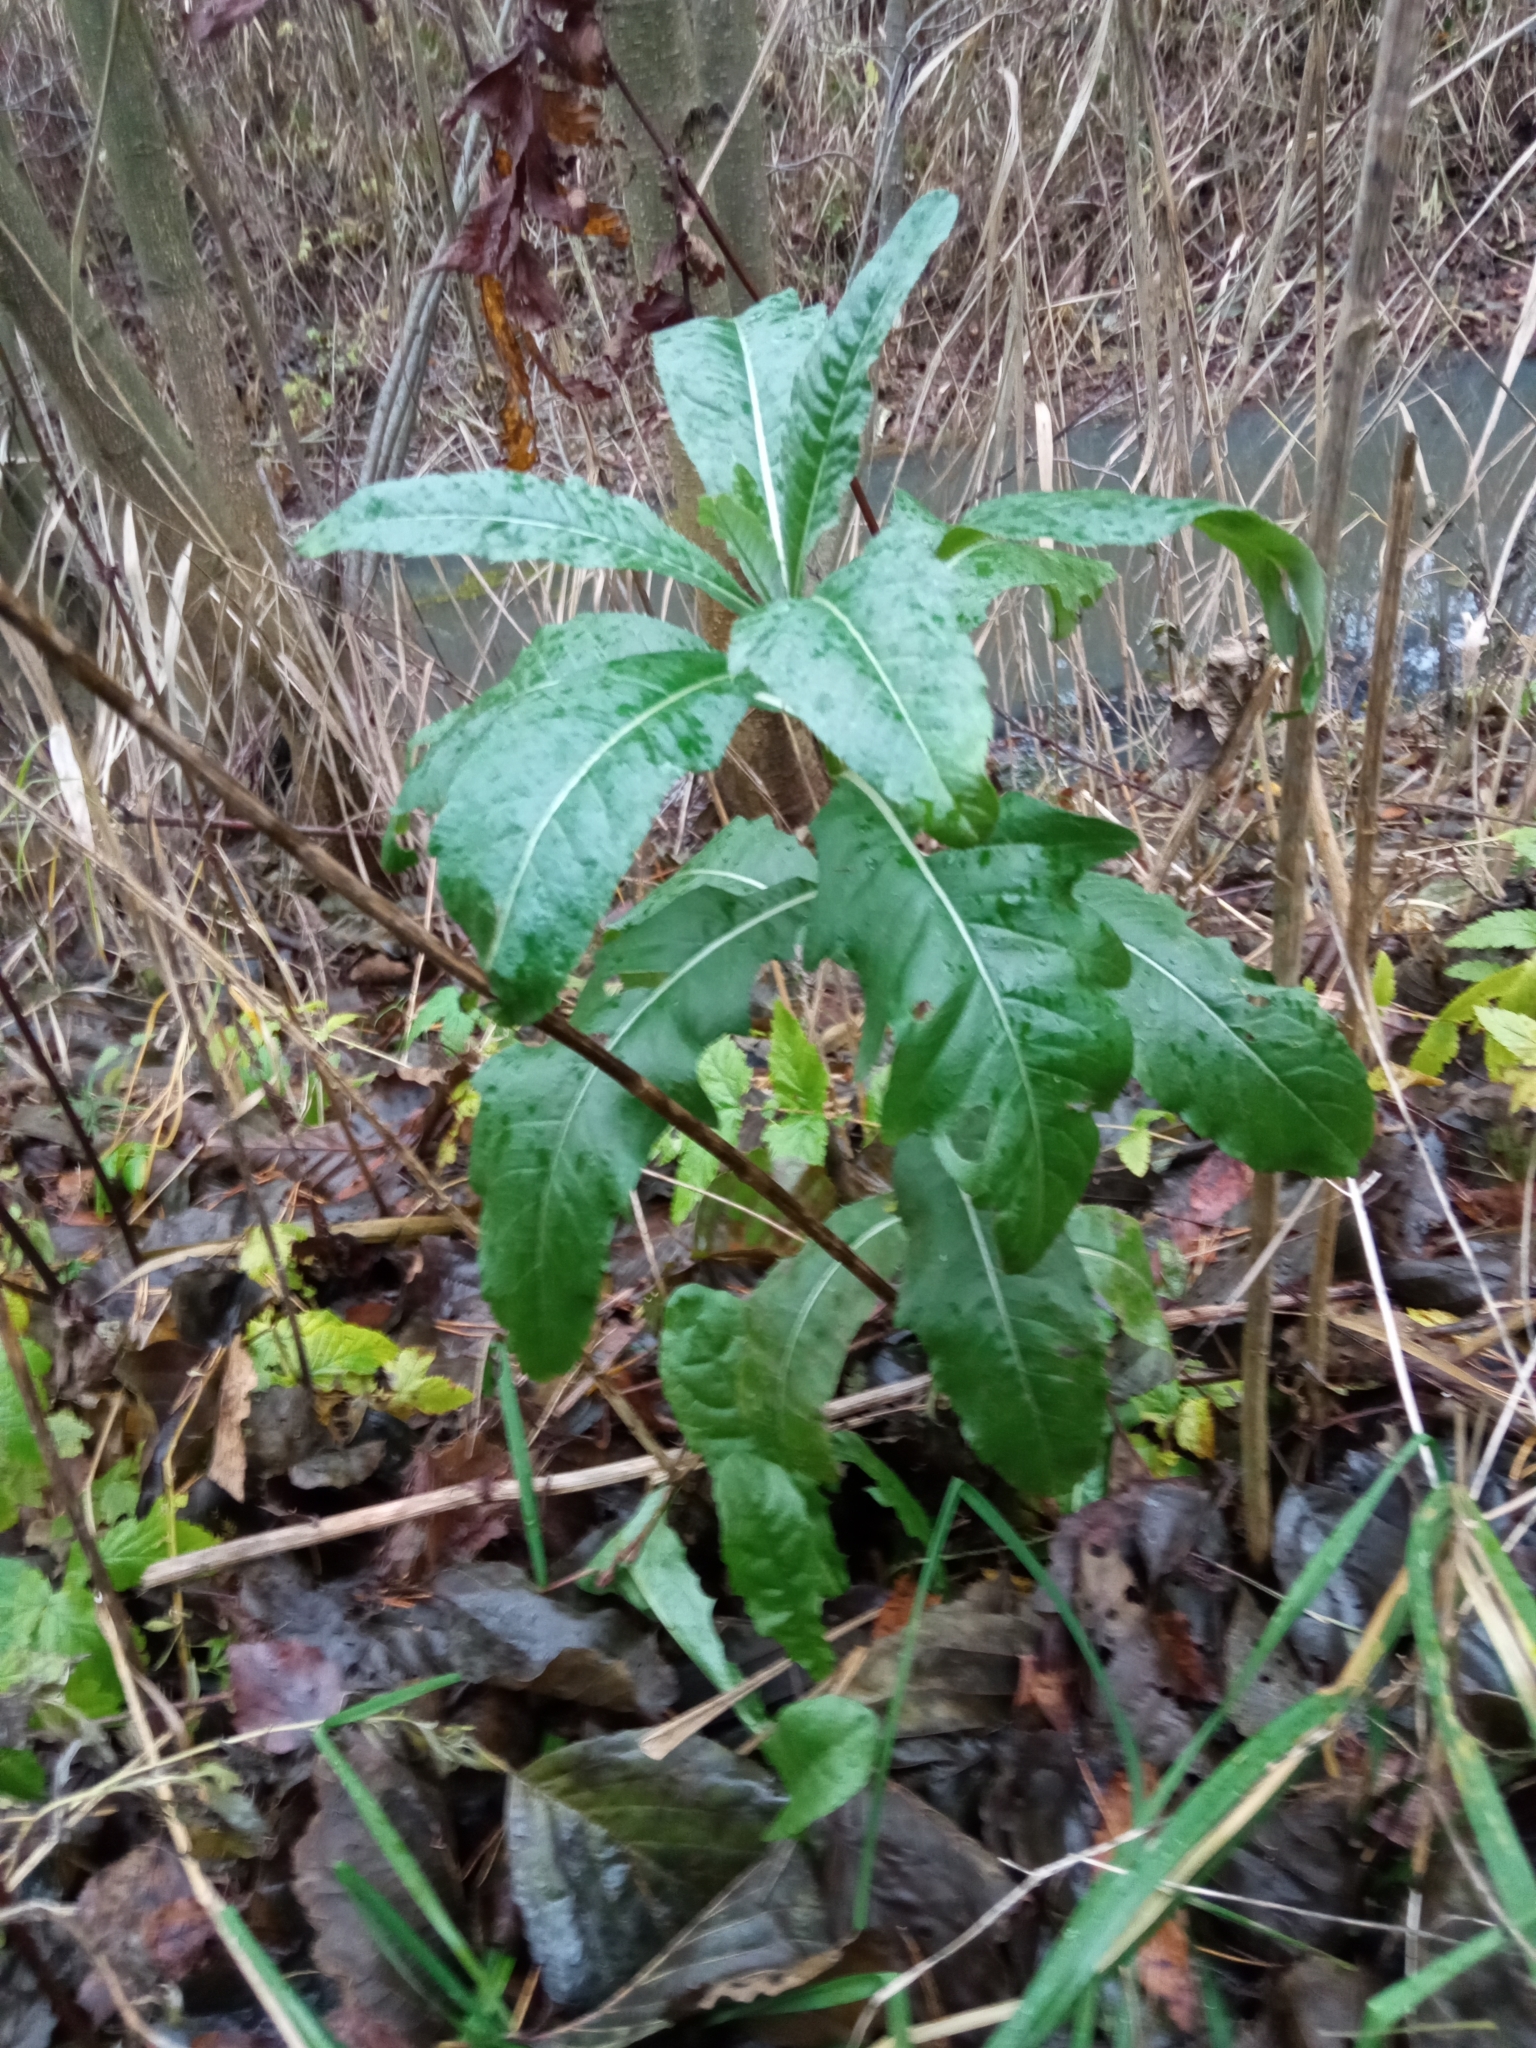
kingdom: Plantae
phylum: Tracheophyta
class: Magnoliopsida
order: Asterales
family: Asteraceae
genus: Cirsium
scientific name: Cirsium arvense
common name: Creeping thistle
